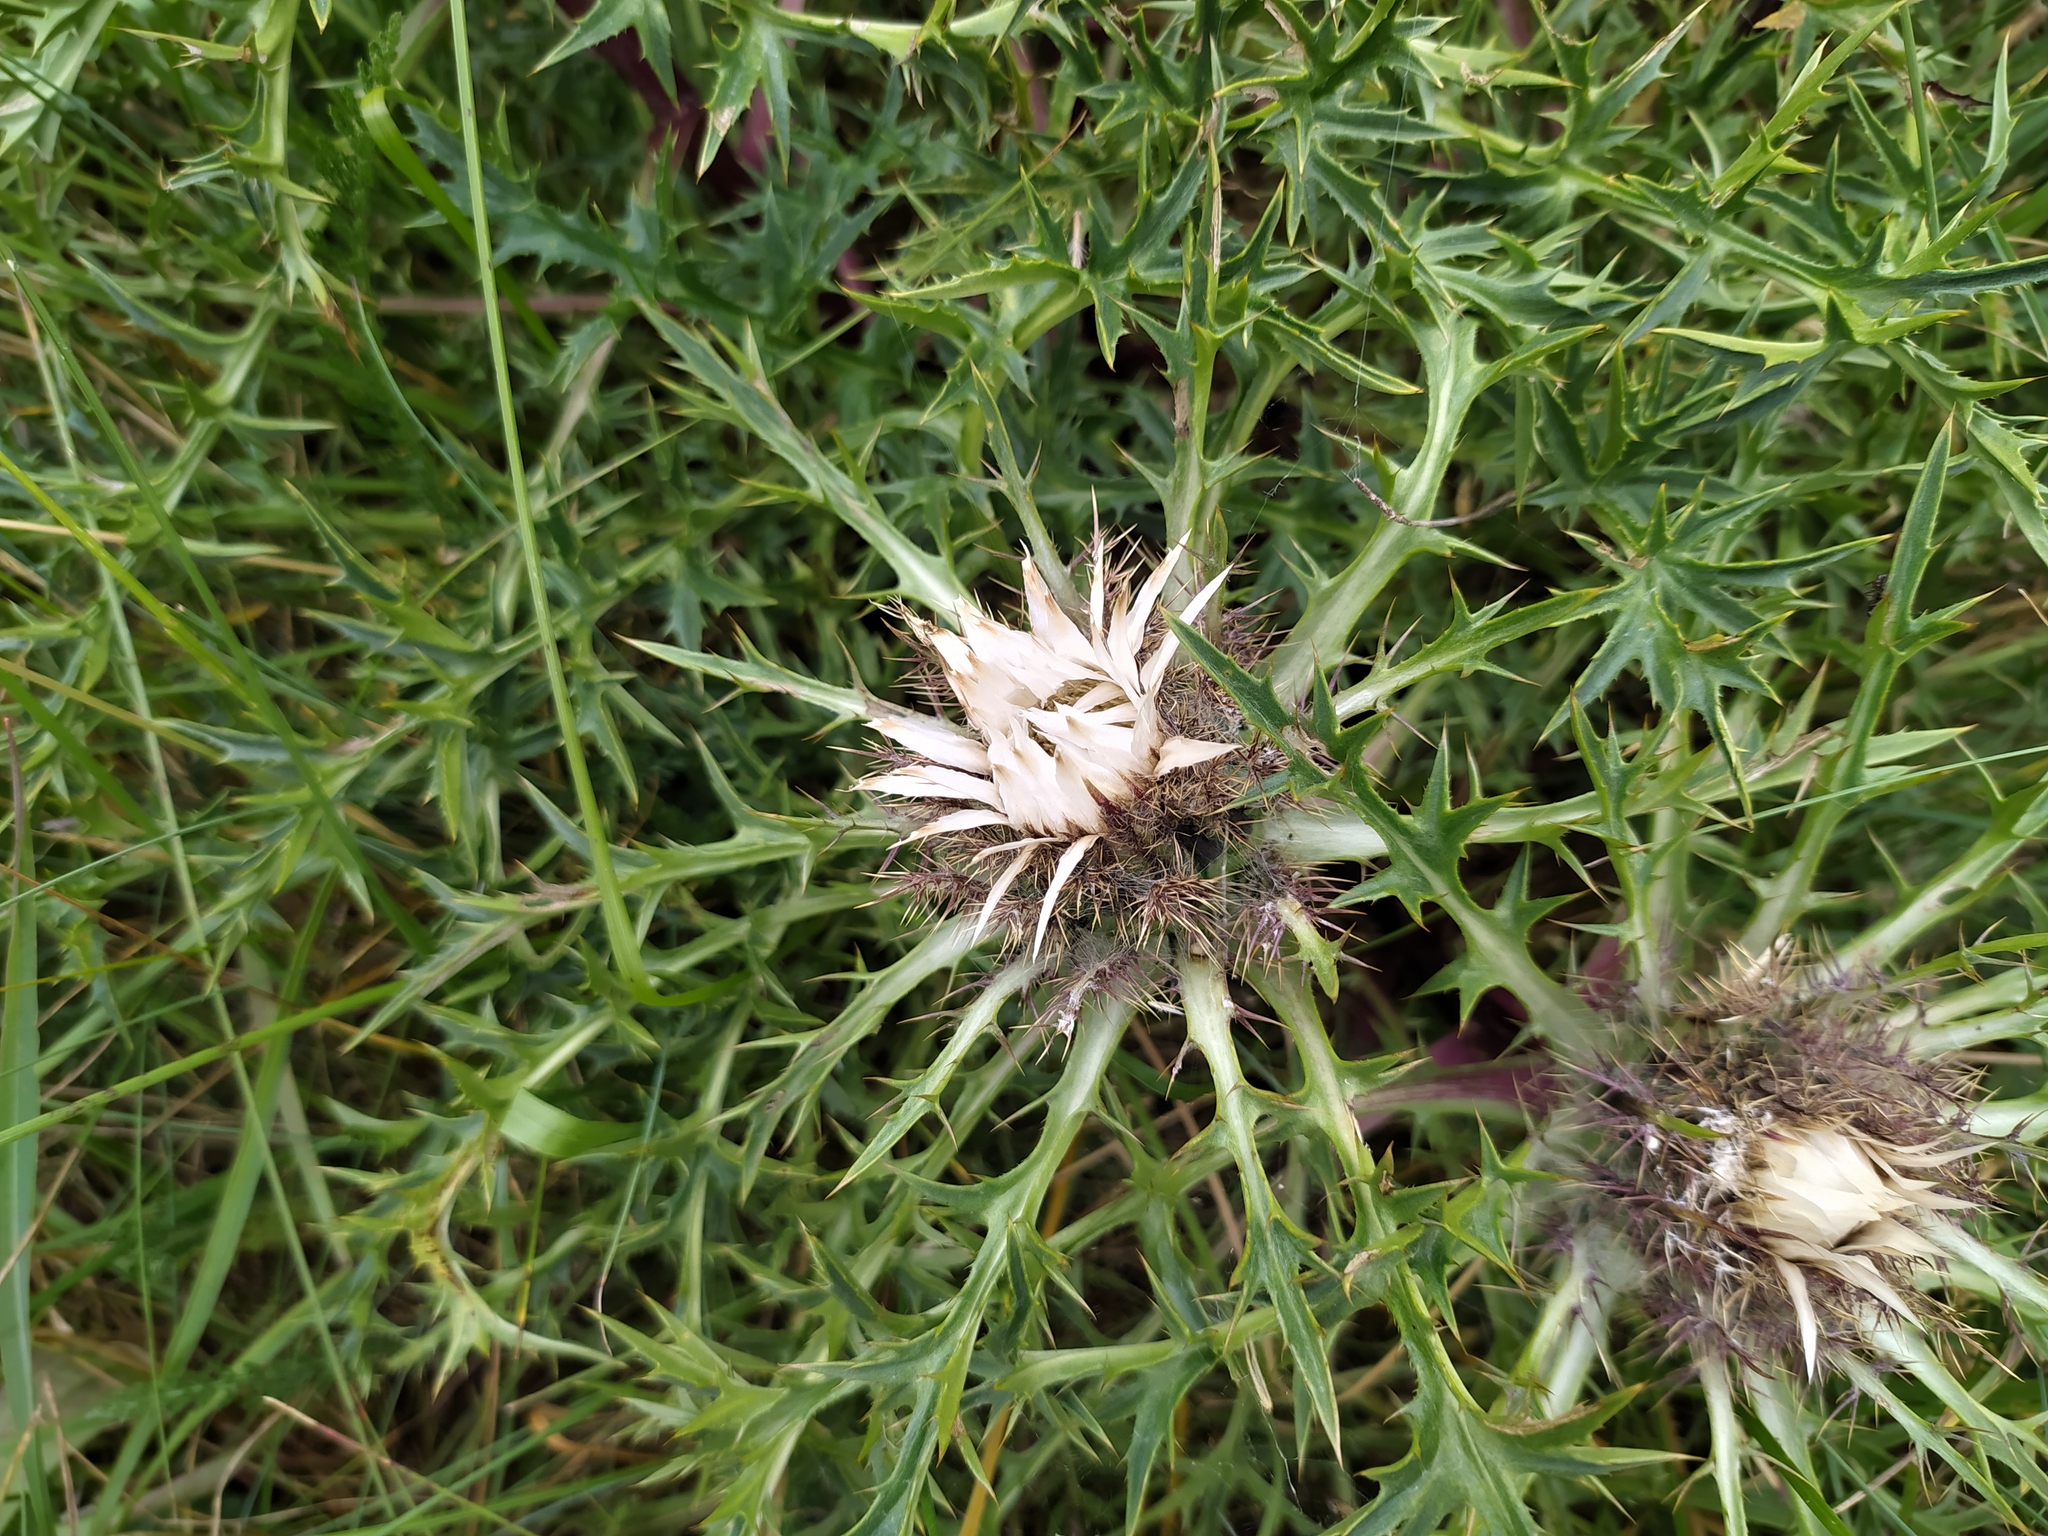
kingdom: Plantae
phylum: Tracheophyta
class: Magnoliopsida
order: Asterales
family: Asteraceae
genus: Carlina
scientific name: Carlina acaulis
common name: Stemless carline thistle
